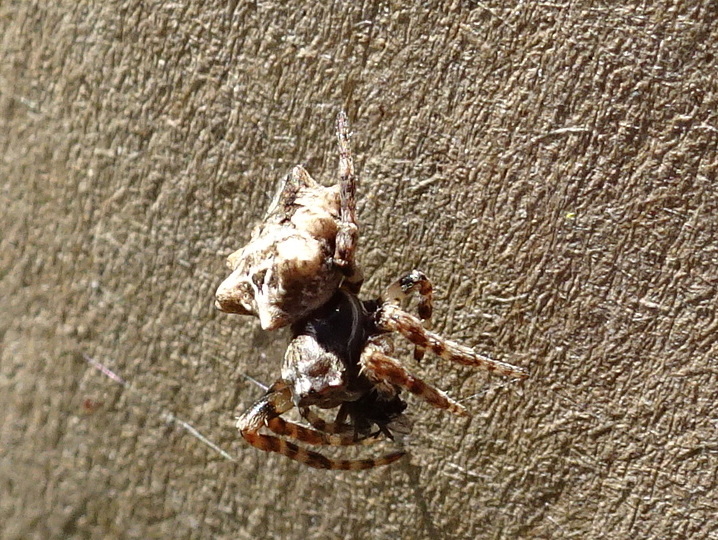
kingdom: Animalia
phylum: Arthropoda
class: Arachnida
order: Araneae
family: Araneidae
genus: Acanthepeira
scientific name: Acanthepeira stellata
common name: Starbellied orbweaver
